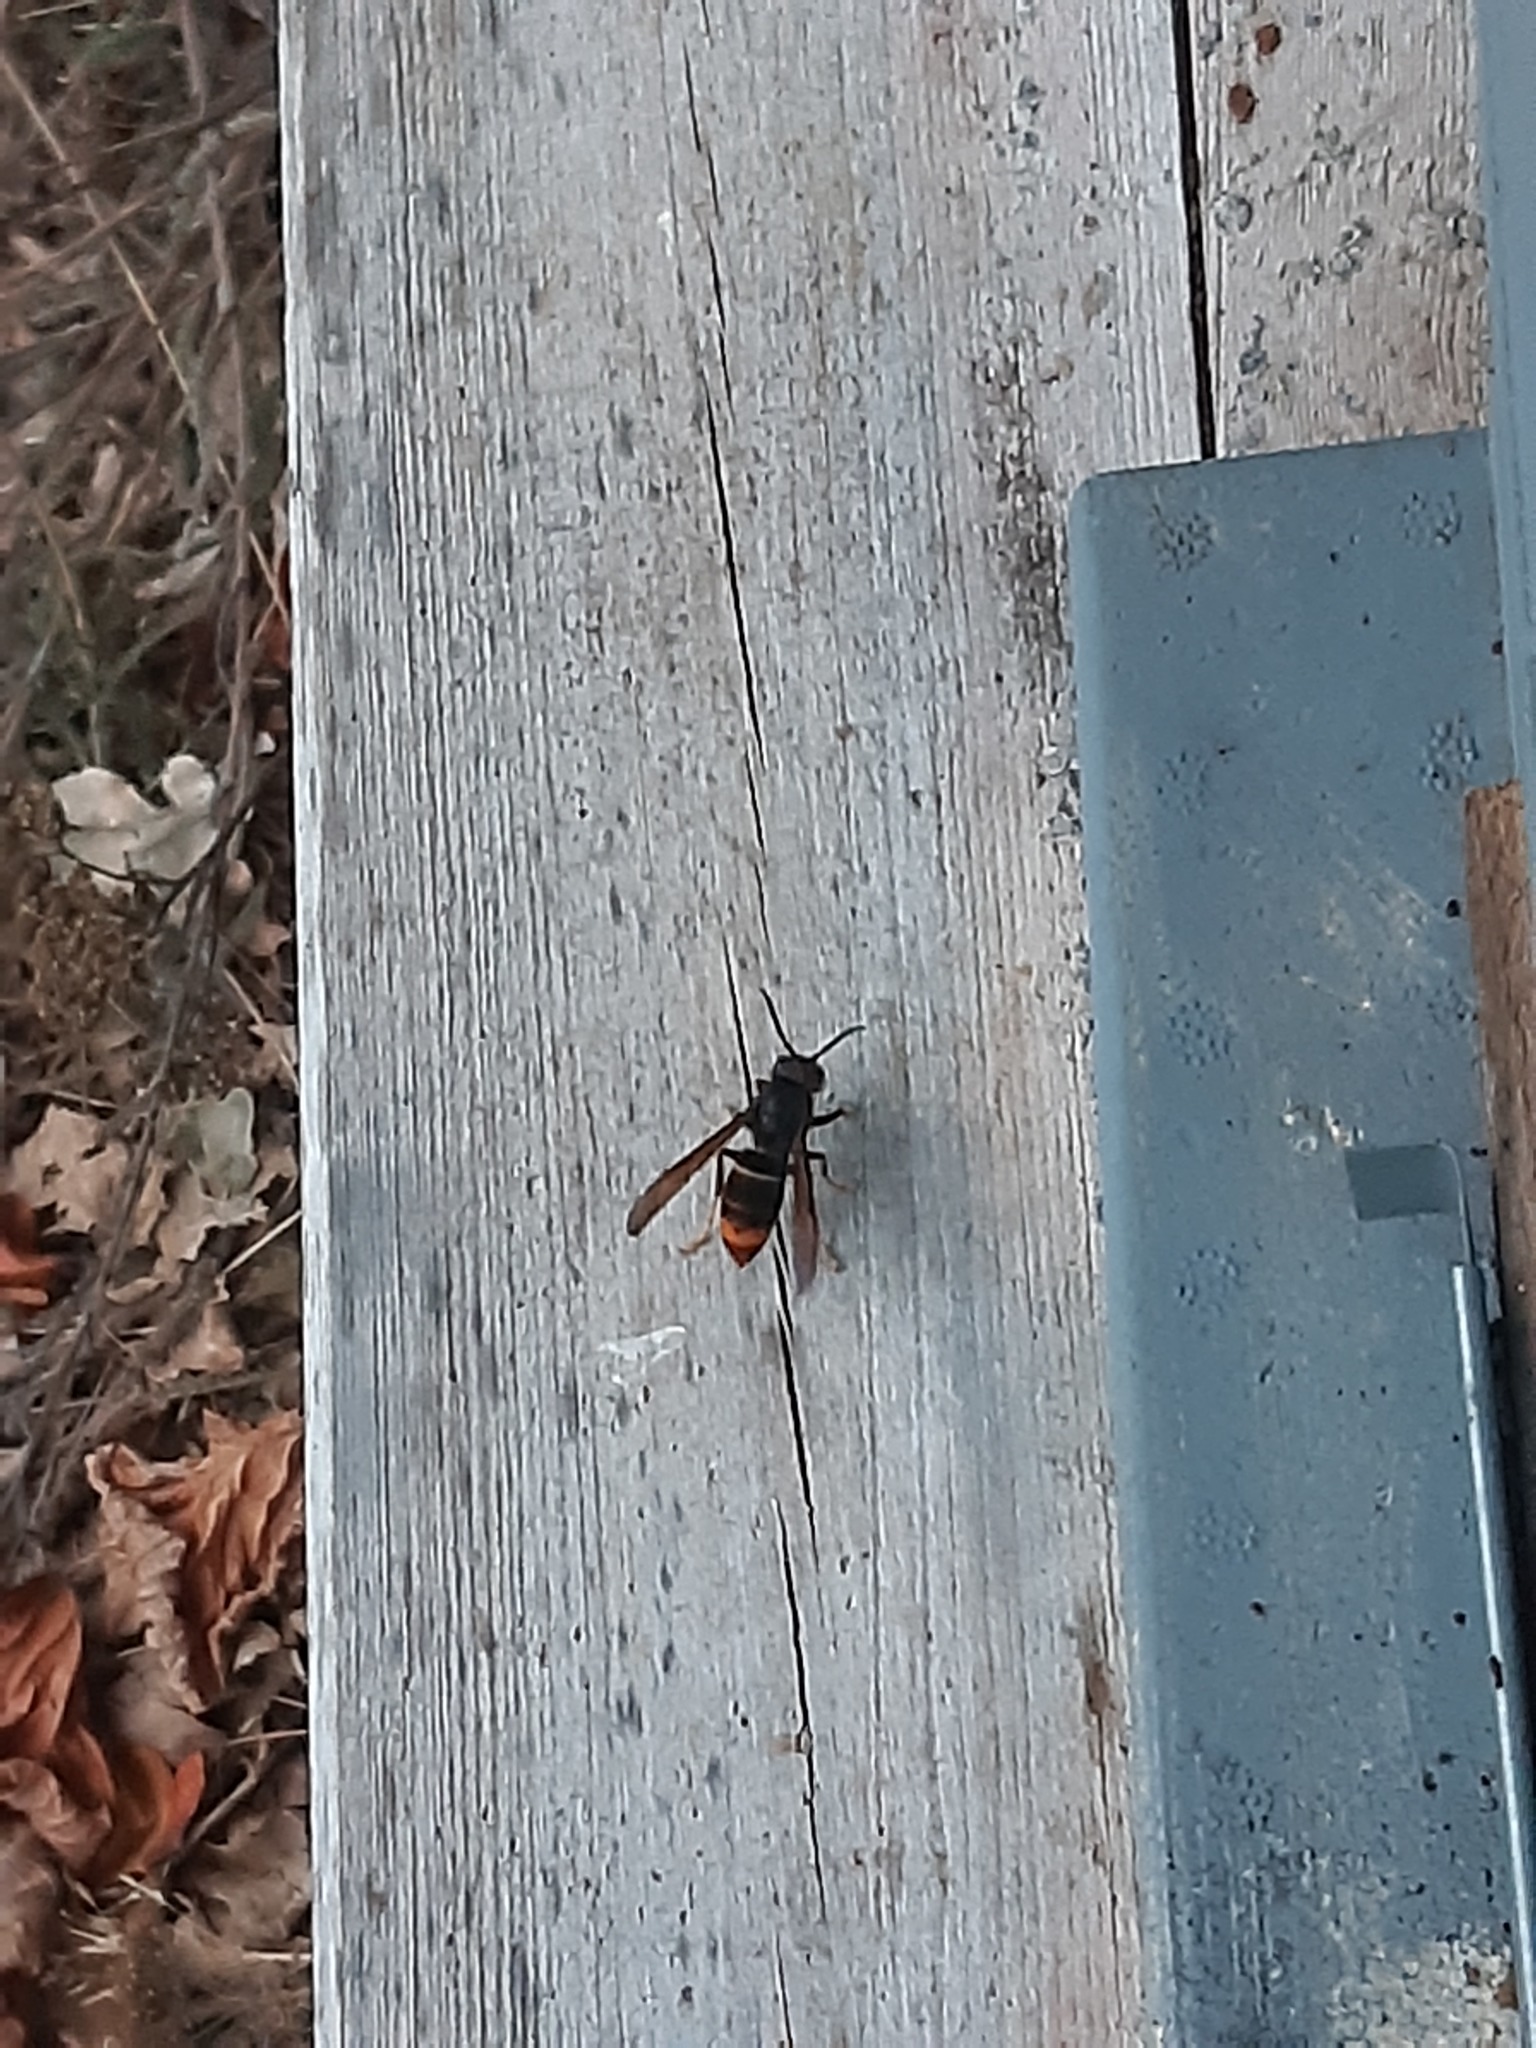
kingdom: Animalia
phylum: Arthropoda
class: Insecta
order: Hymenoptera
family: Vespidae
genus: Vespa
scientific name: Vespa velutina
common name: Asian hornet
